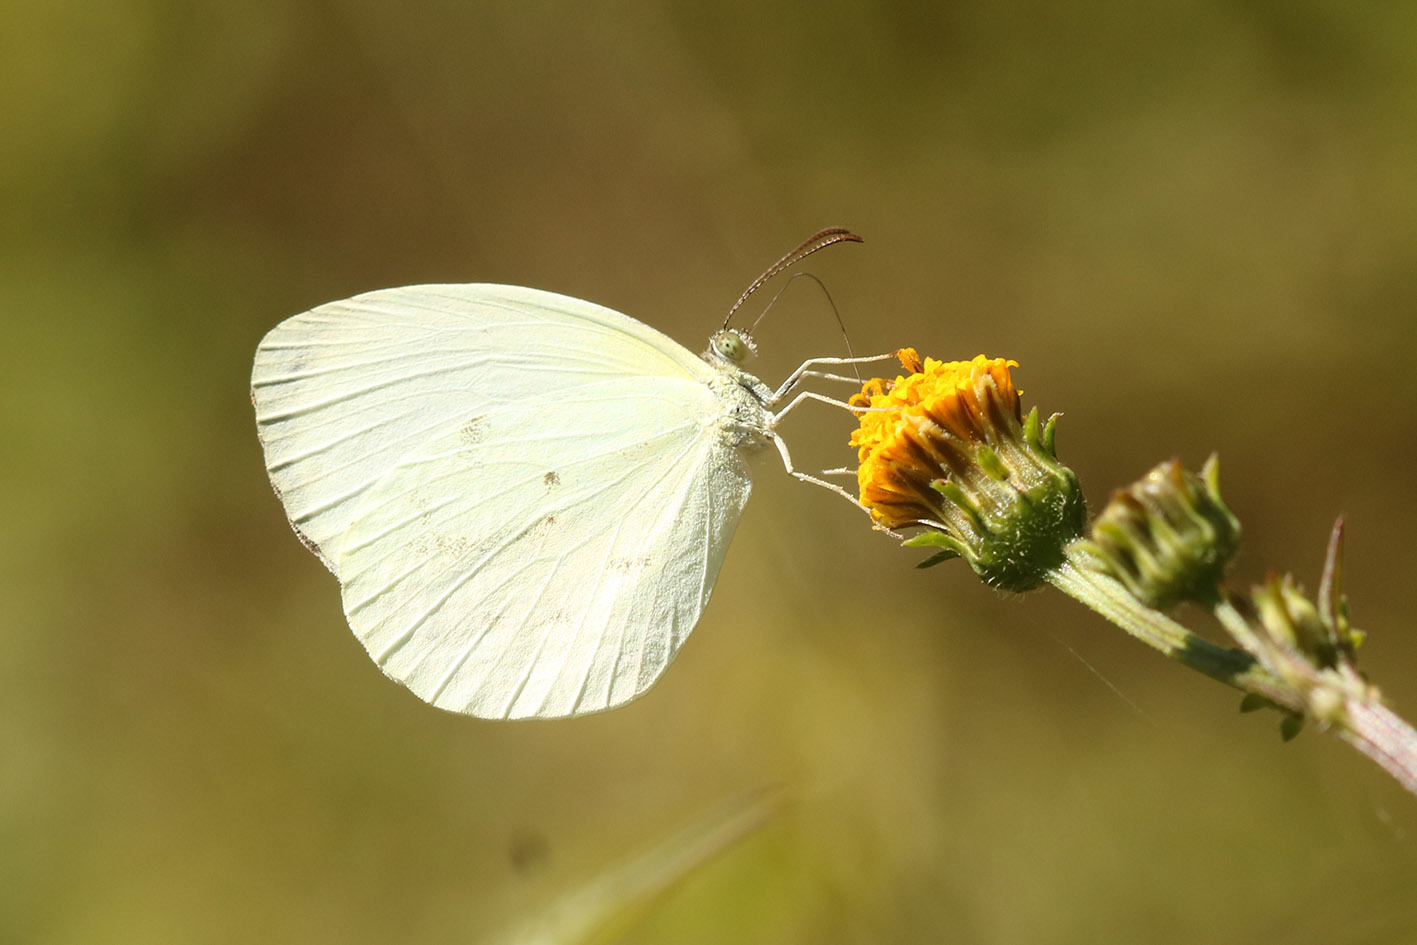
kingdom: Animalia
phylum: Arthropoda
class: Insecta
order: Lepidoptera
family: Pieridae
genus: Abaeis
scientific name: Abaeis albula
